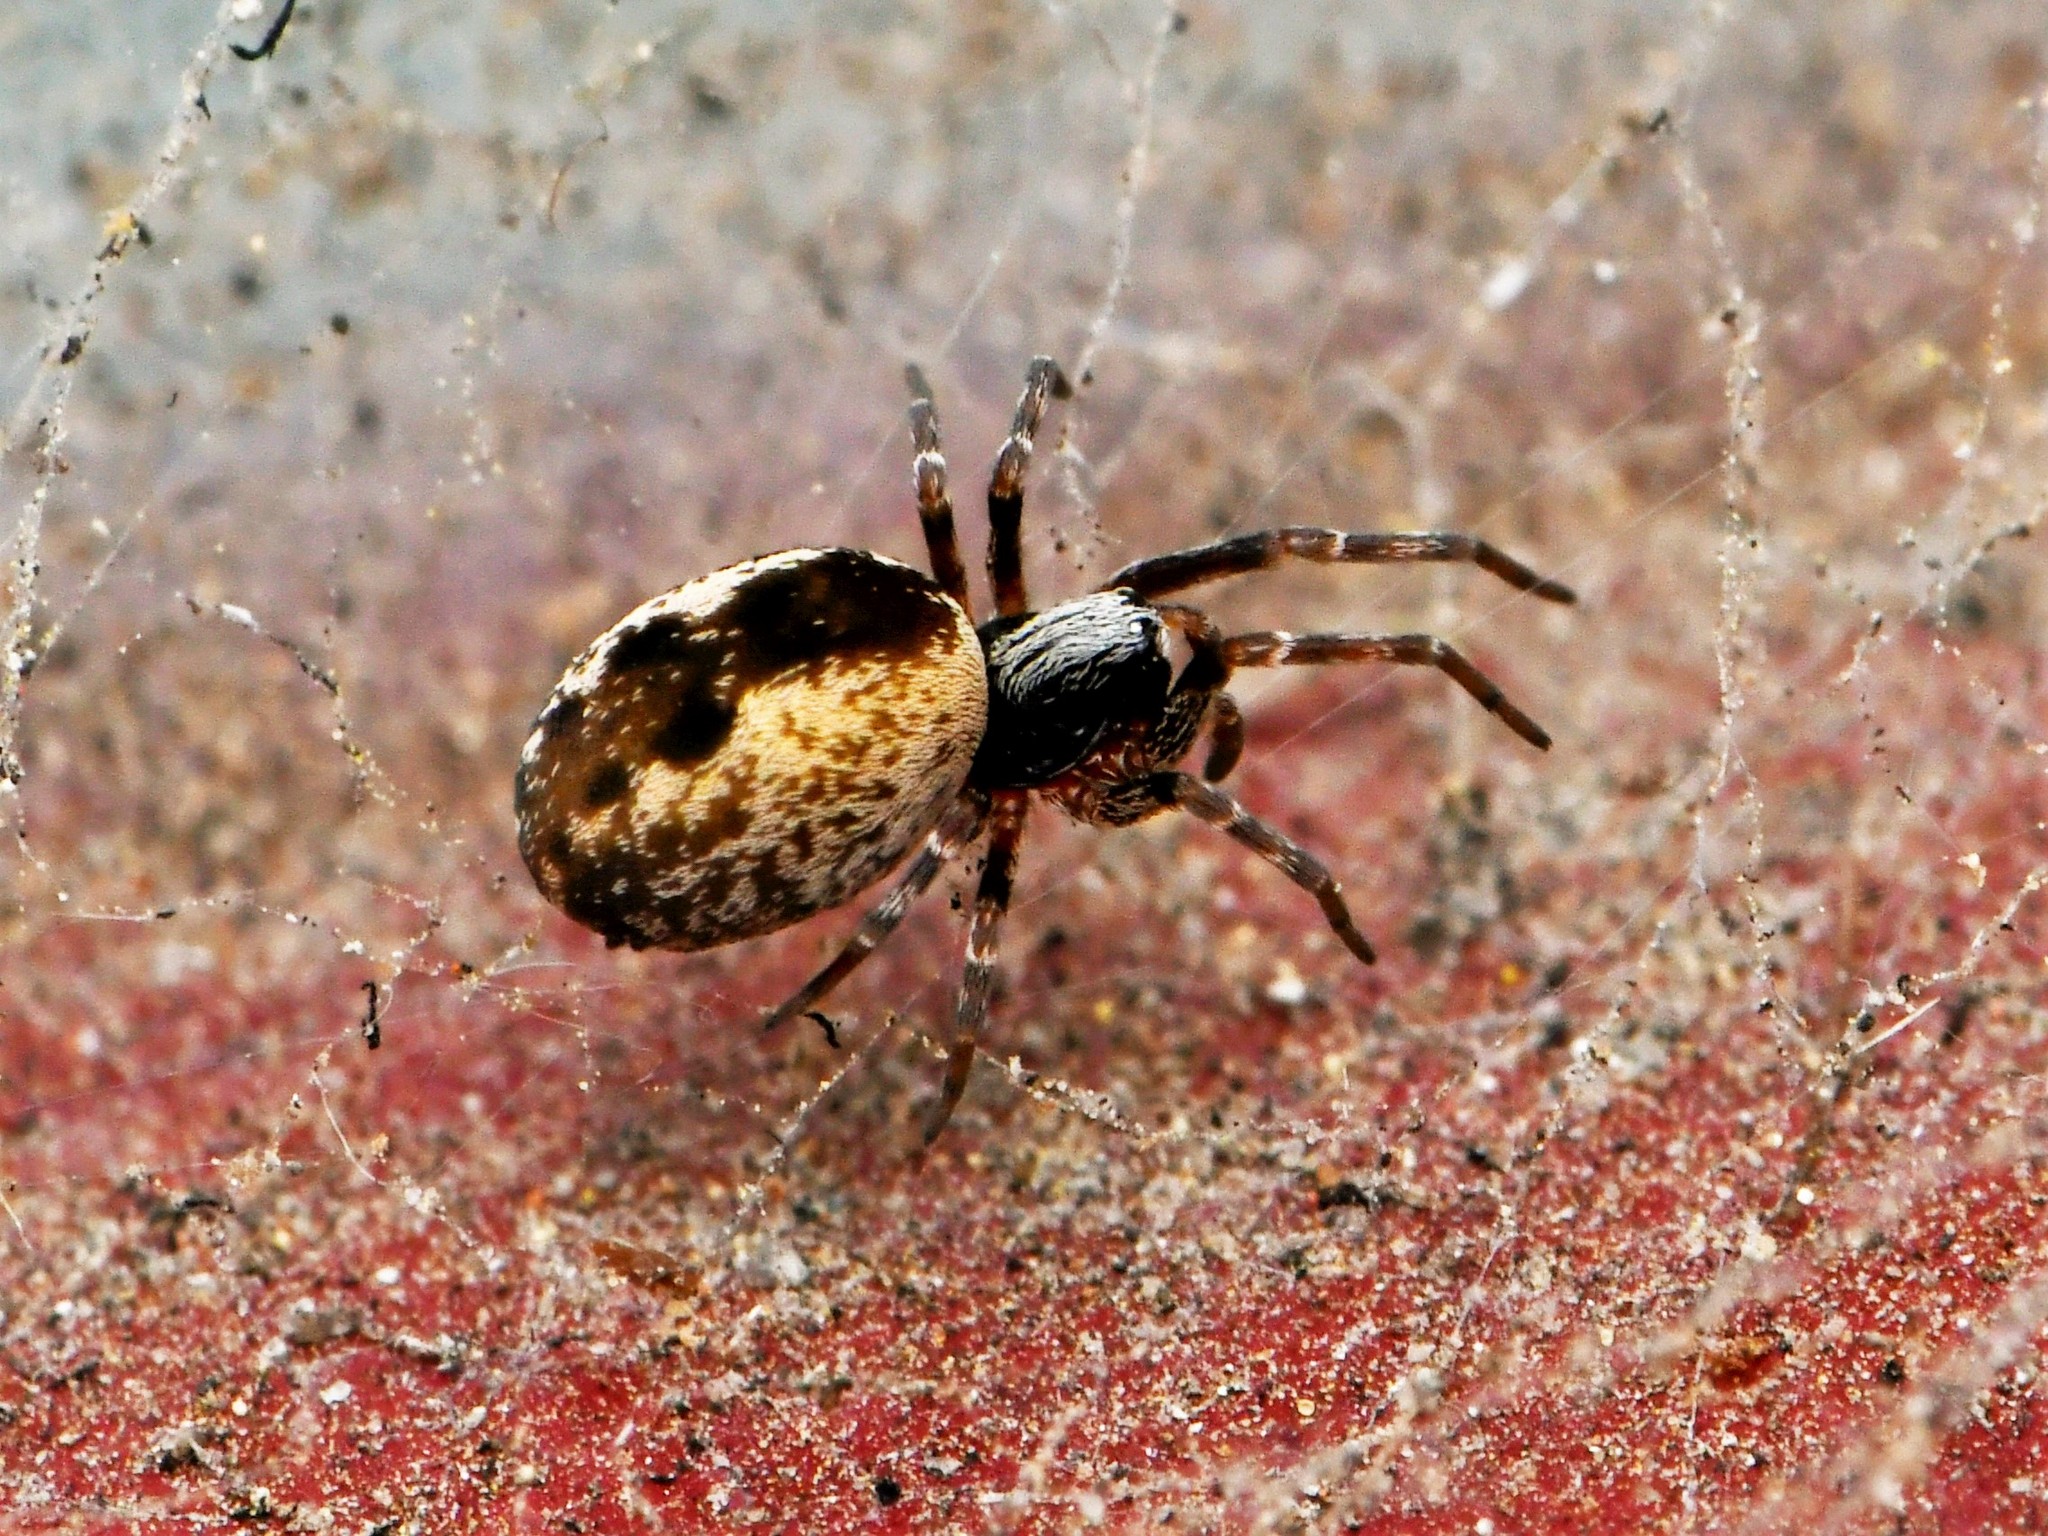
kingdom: Animalia
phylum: Arthropoda
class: Arachnida
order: Araneae
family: Dictynidae
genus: Brigittea
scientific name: Brigittea civica
